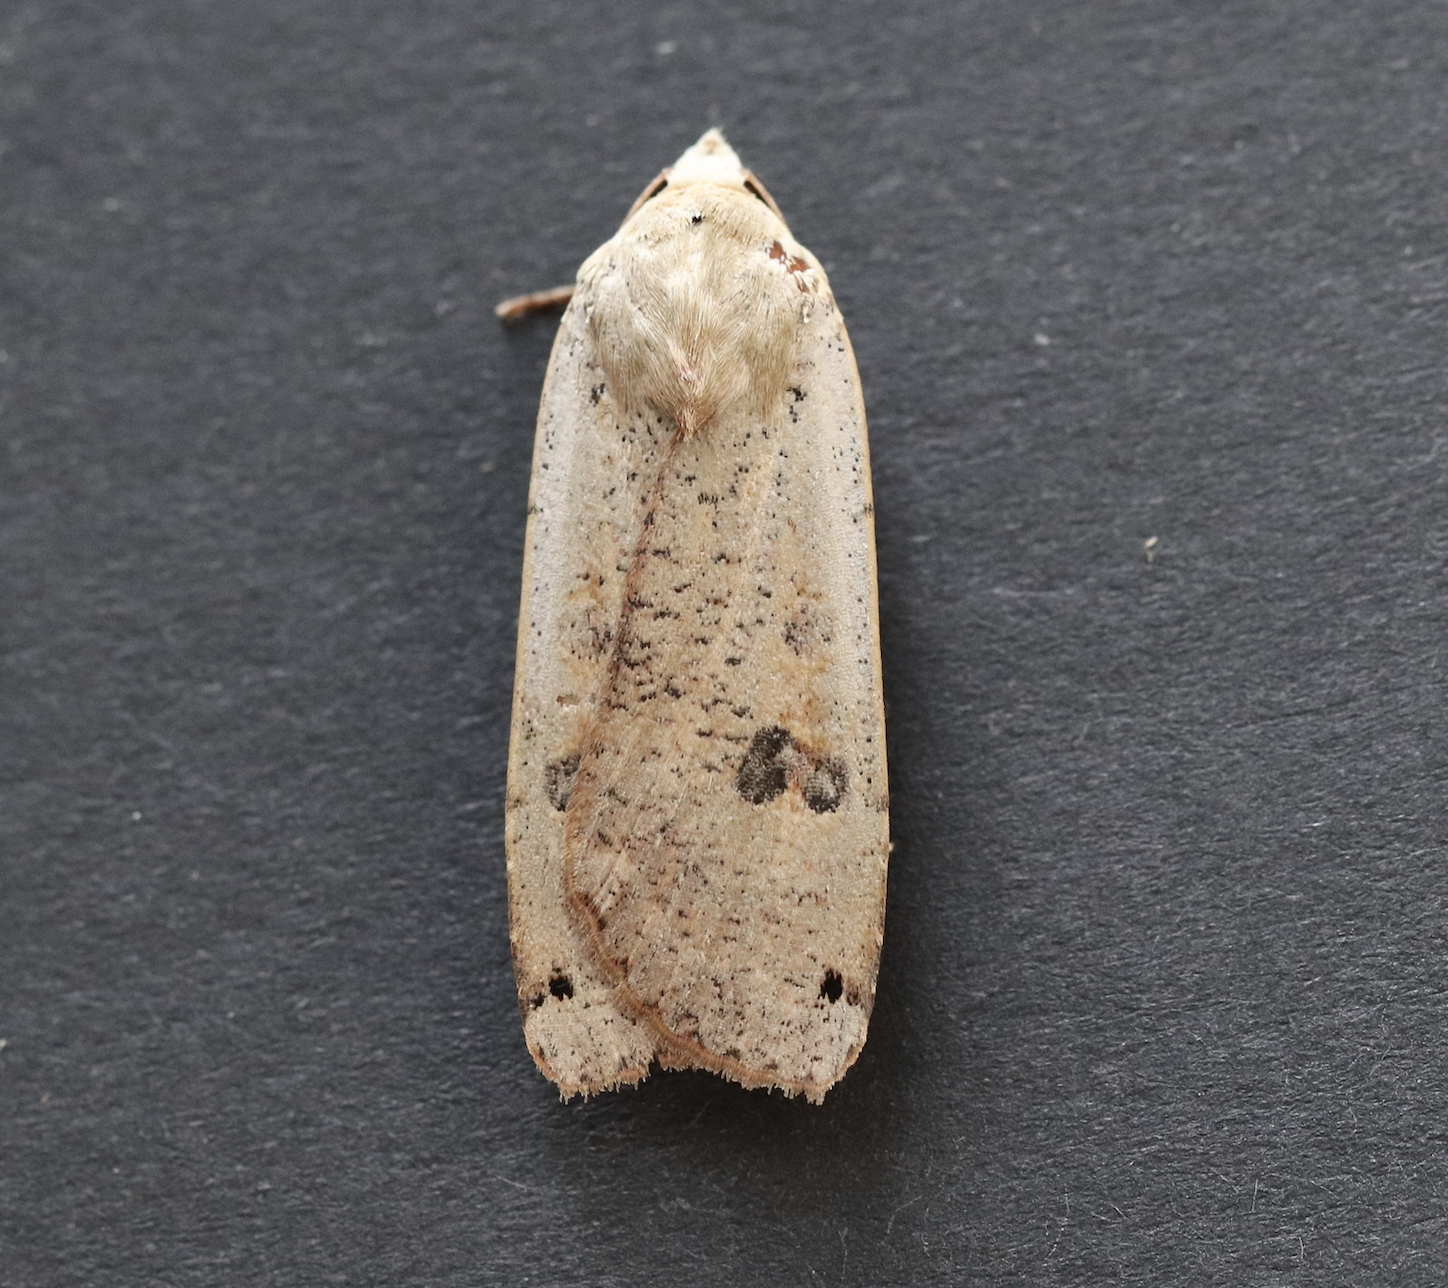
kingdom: Animalia
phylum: Arthropoda
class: Insecta
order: Lepidoptera
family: Noctuidae
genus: Noctua
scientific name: Noctua pronuba
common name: Large yellow underwing
